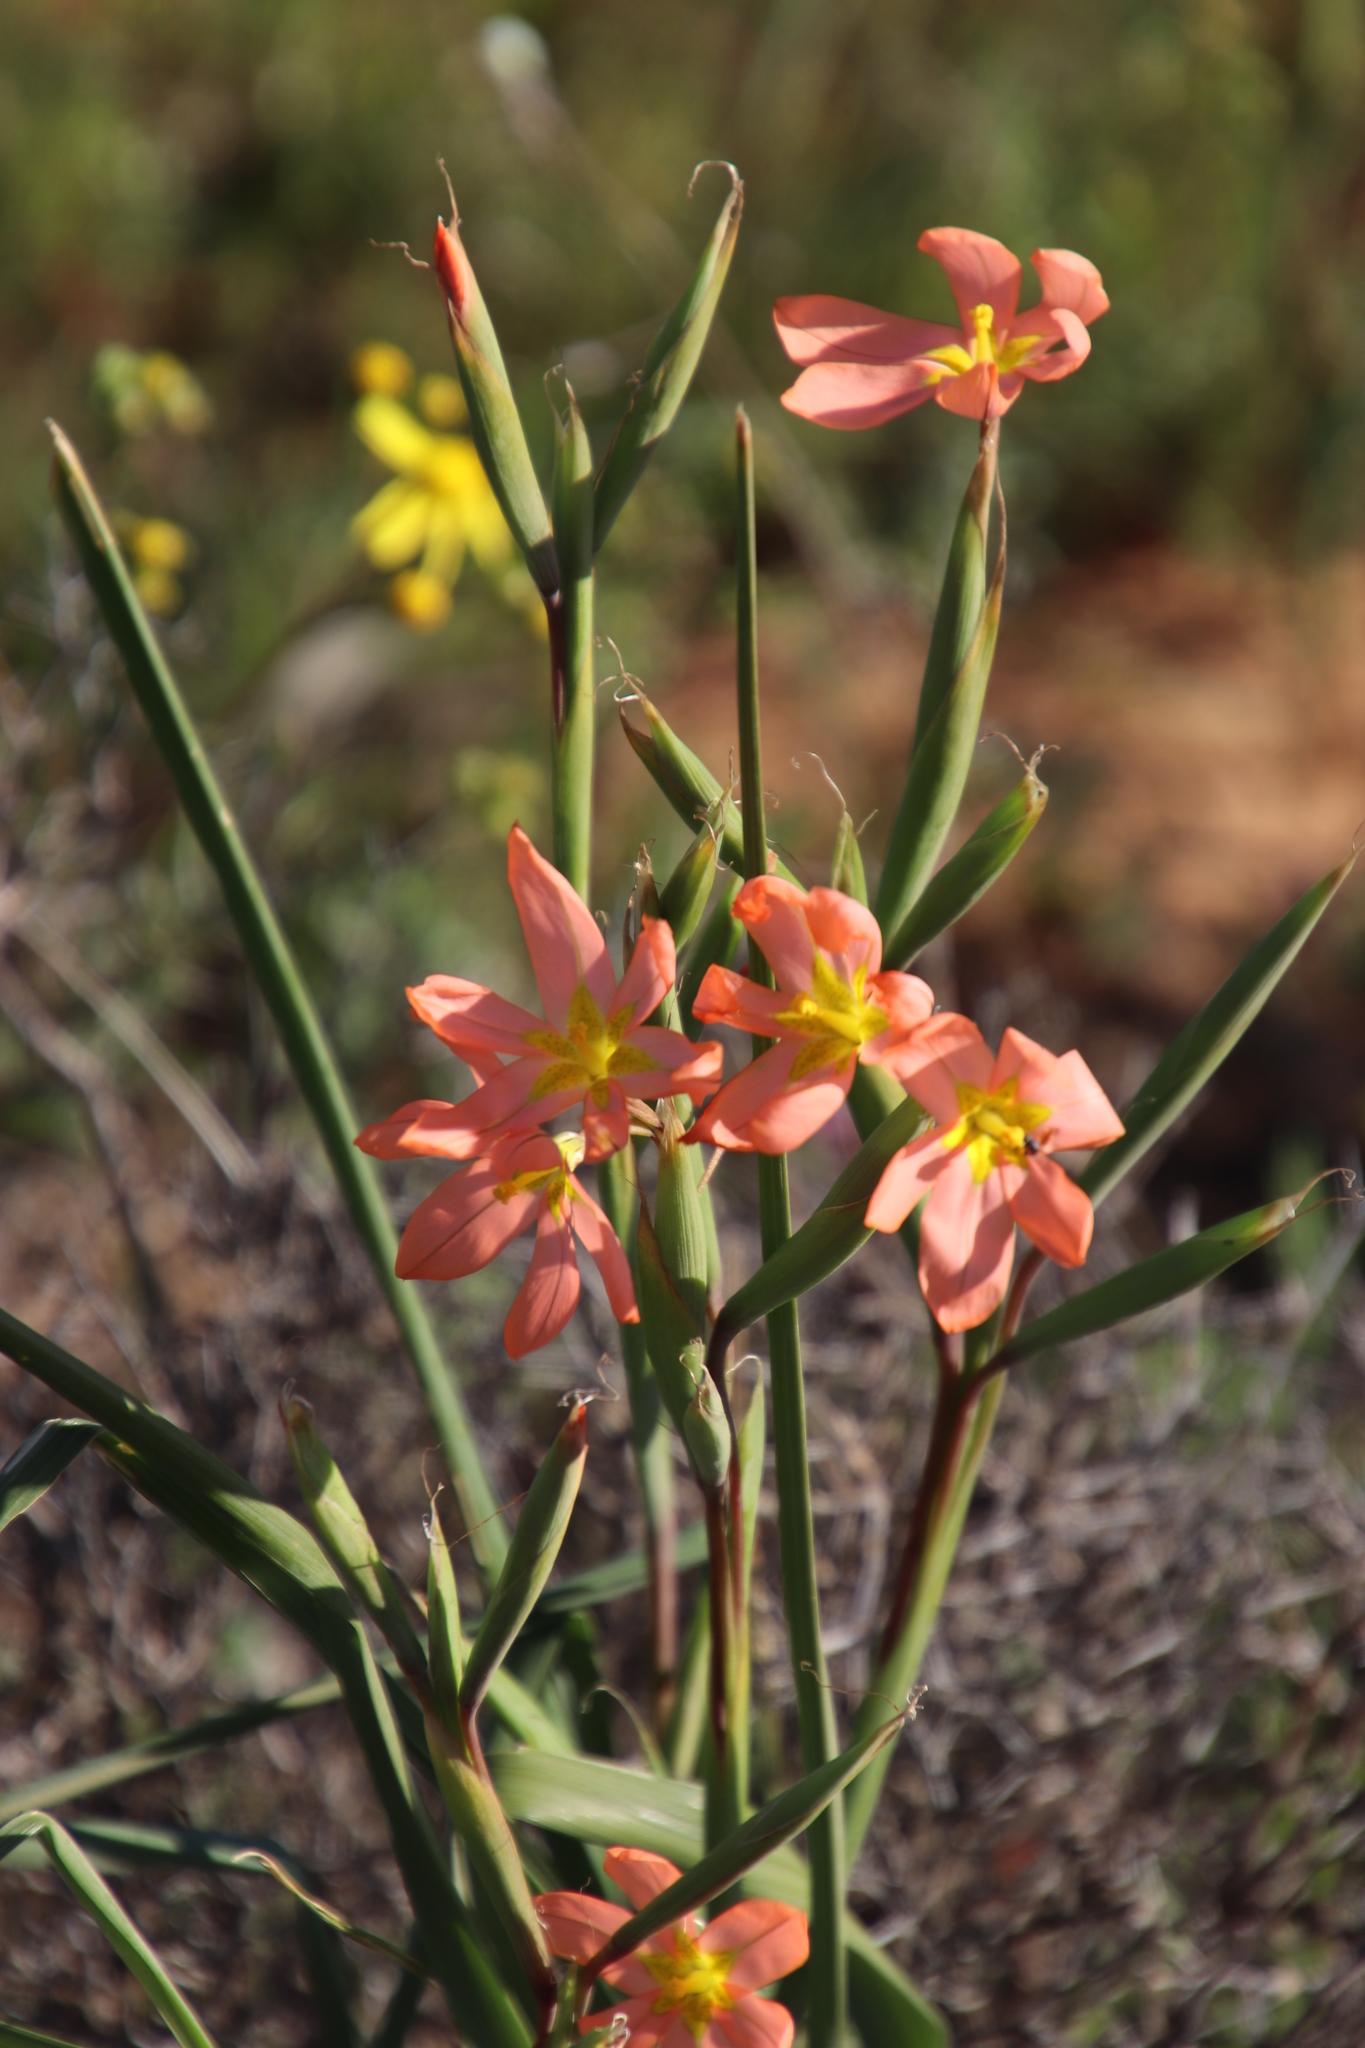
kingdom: Plantae
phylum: Tracheophyta
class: Liliopsida
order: Asparagales
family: Iridaceae
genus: Moraea
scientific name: Moraea miniata
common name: Two-leaf cape-tulip
